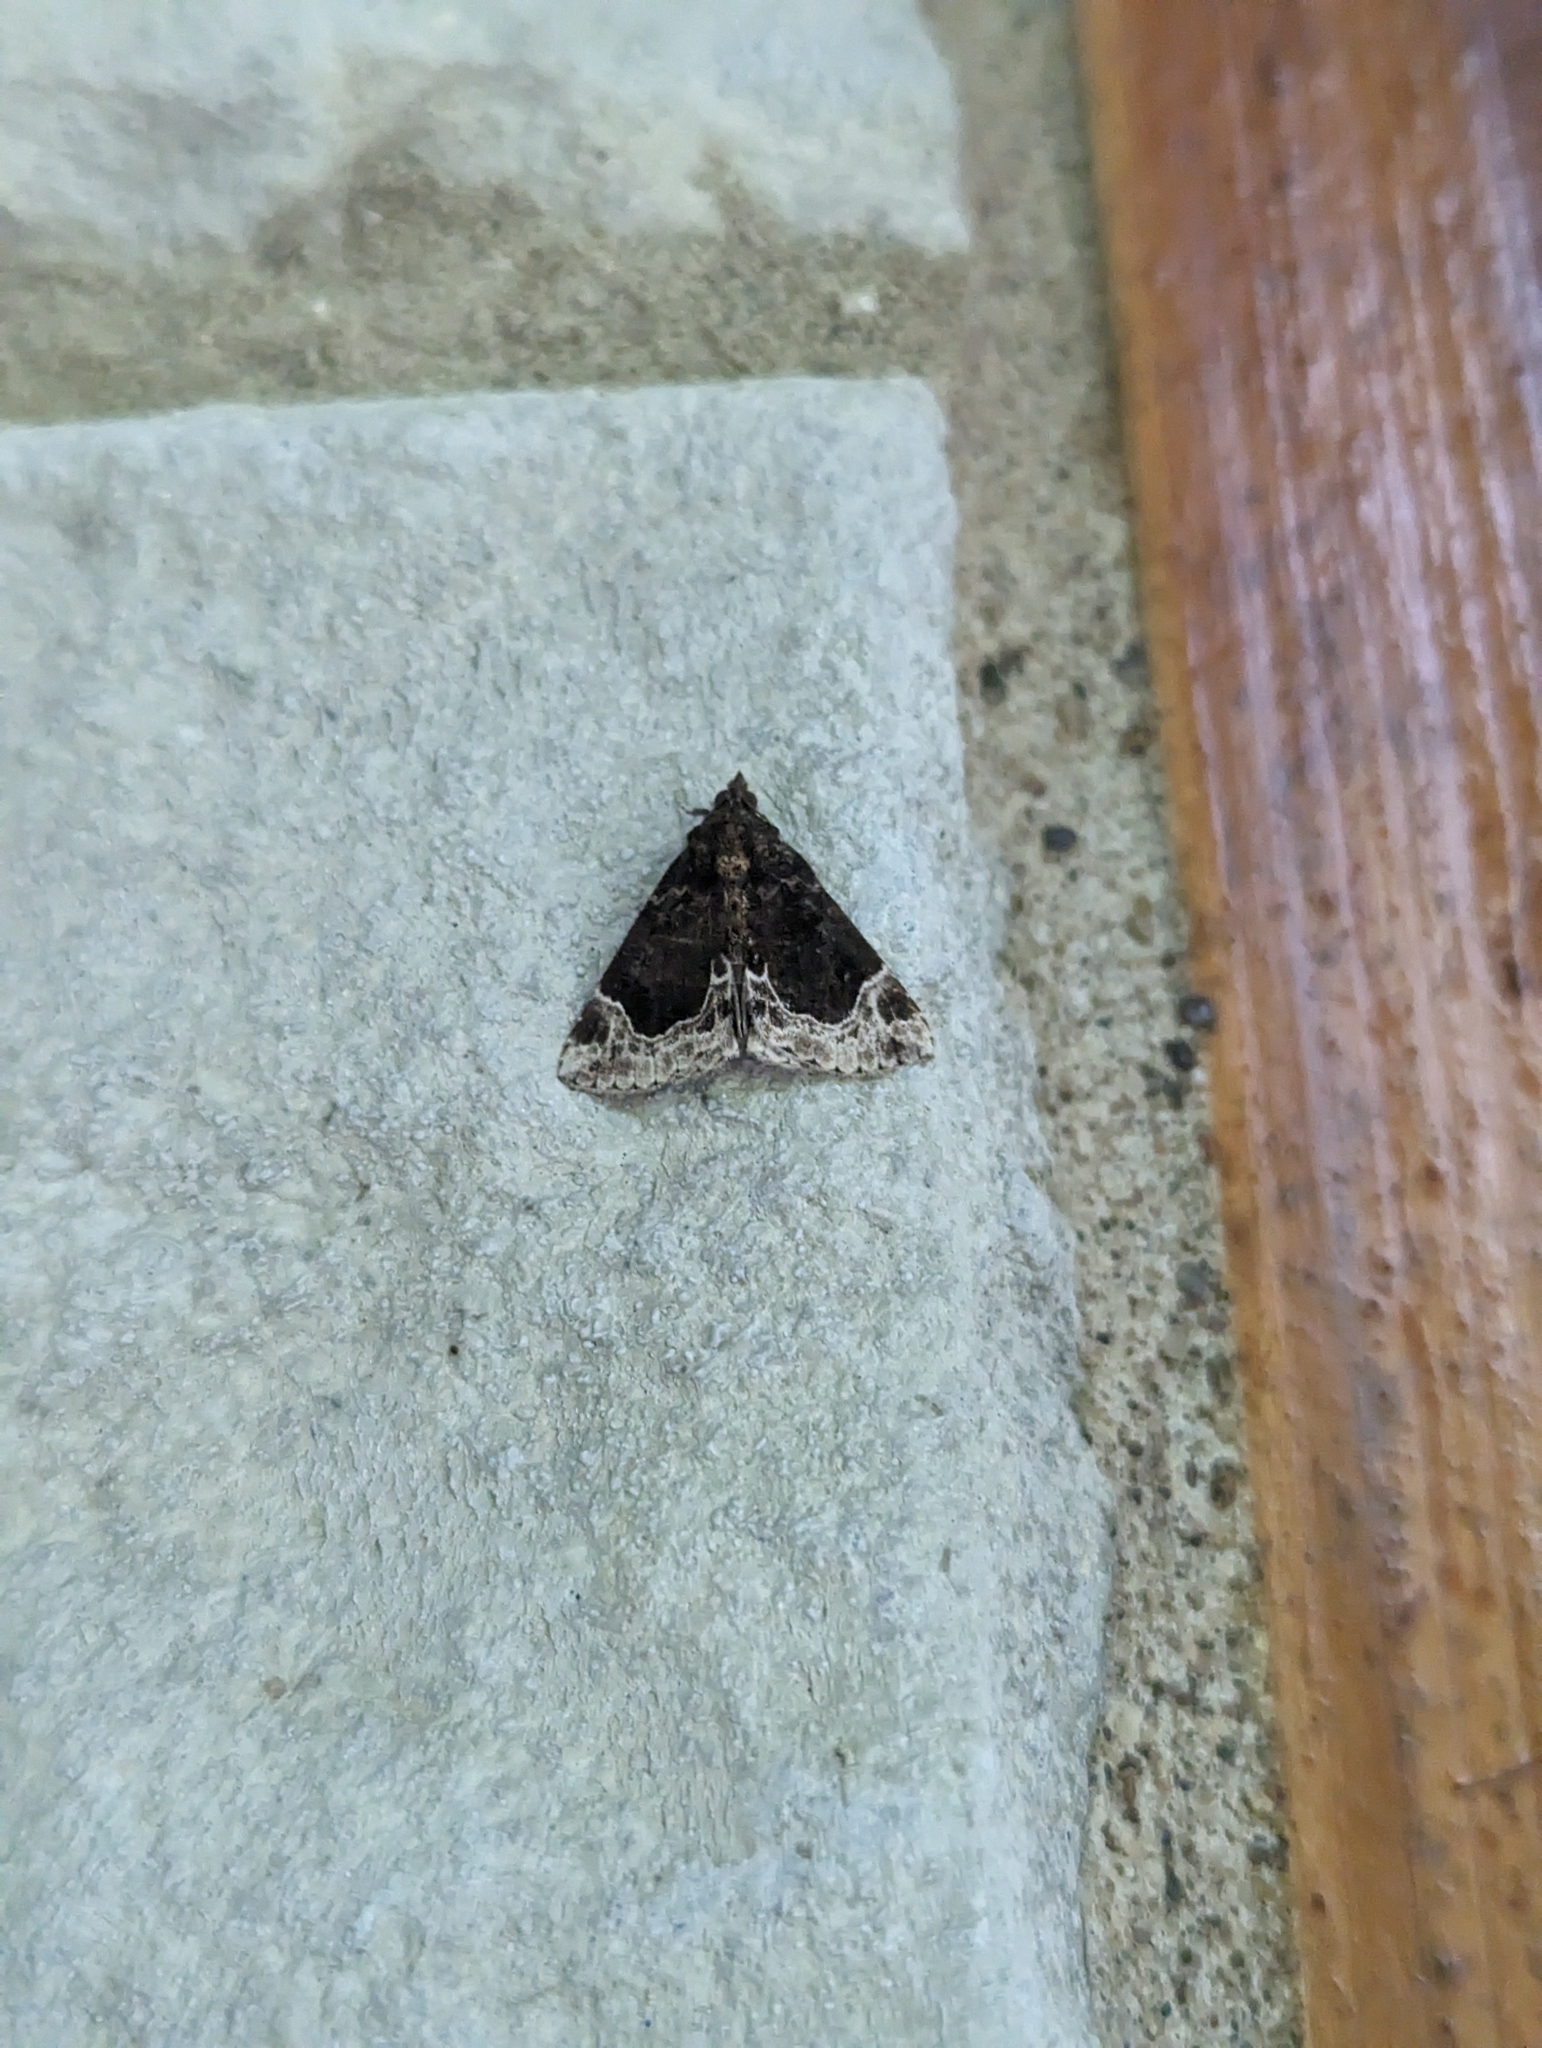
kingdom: Animalia
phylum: Arthropoda
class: Insecta
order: Lepidoptera
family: Erebidae
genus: Hypena
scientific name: Hypena abalienalis
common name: White-lined snout
